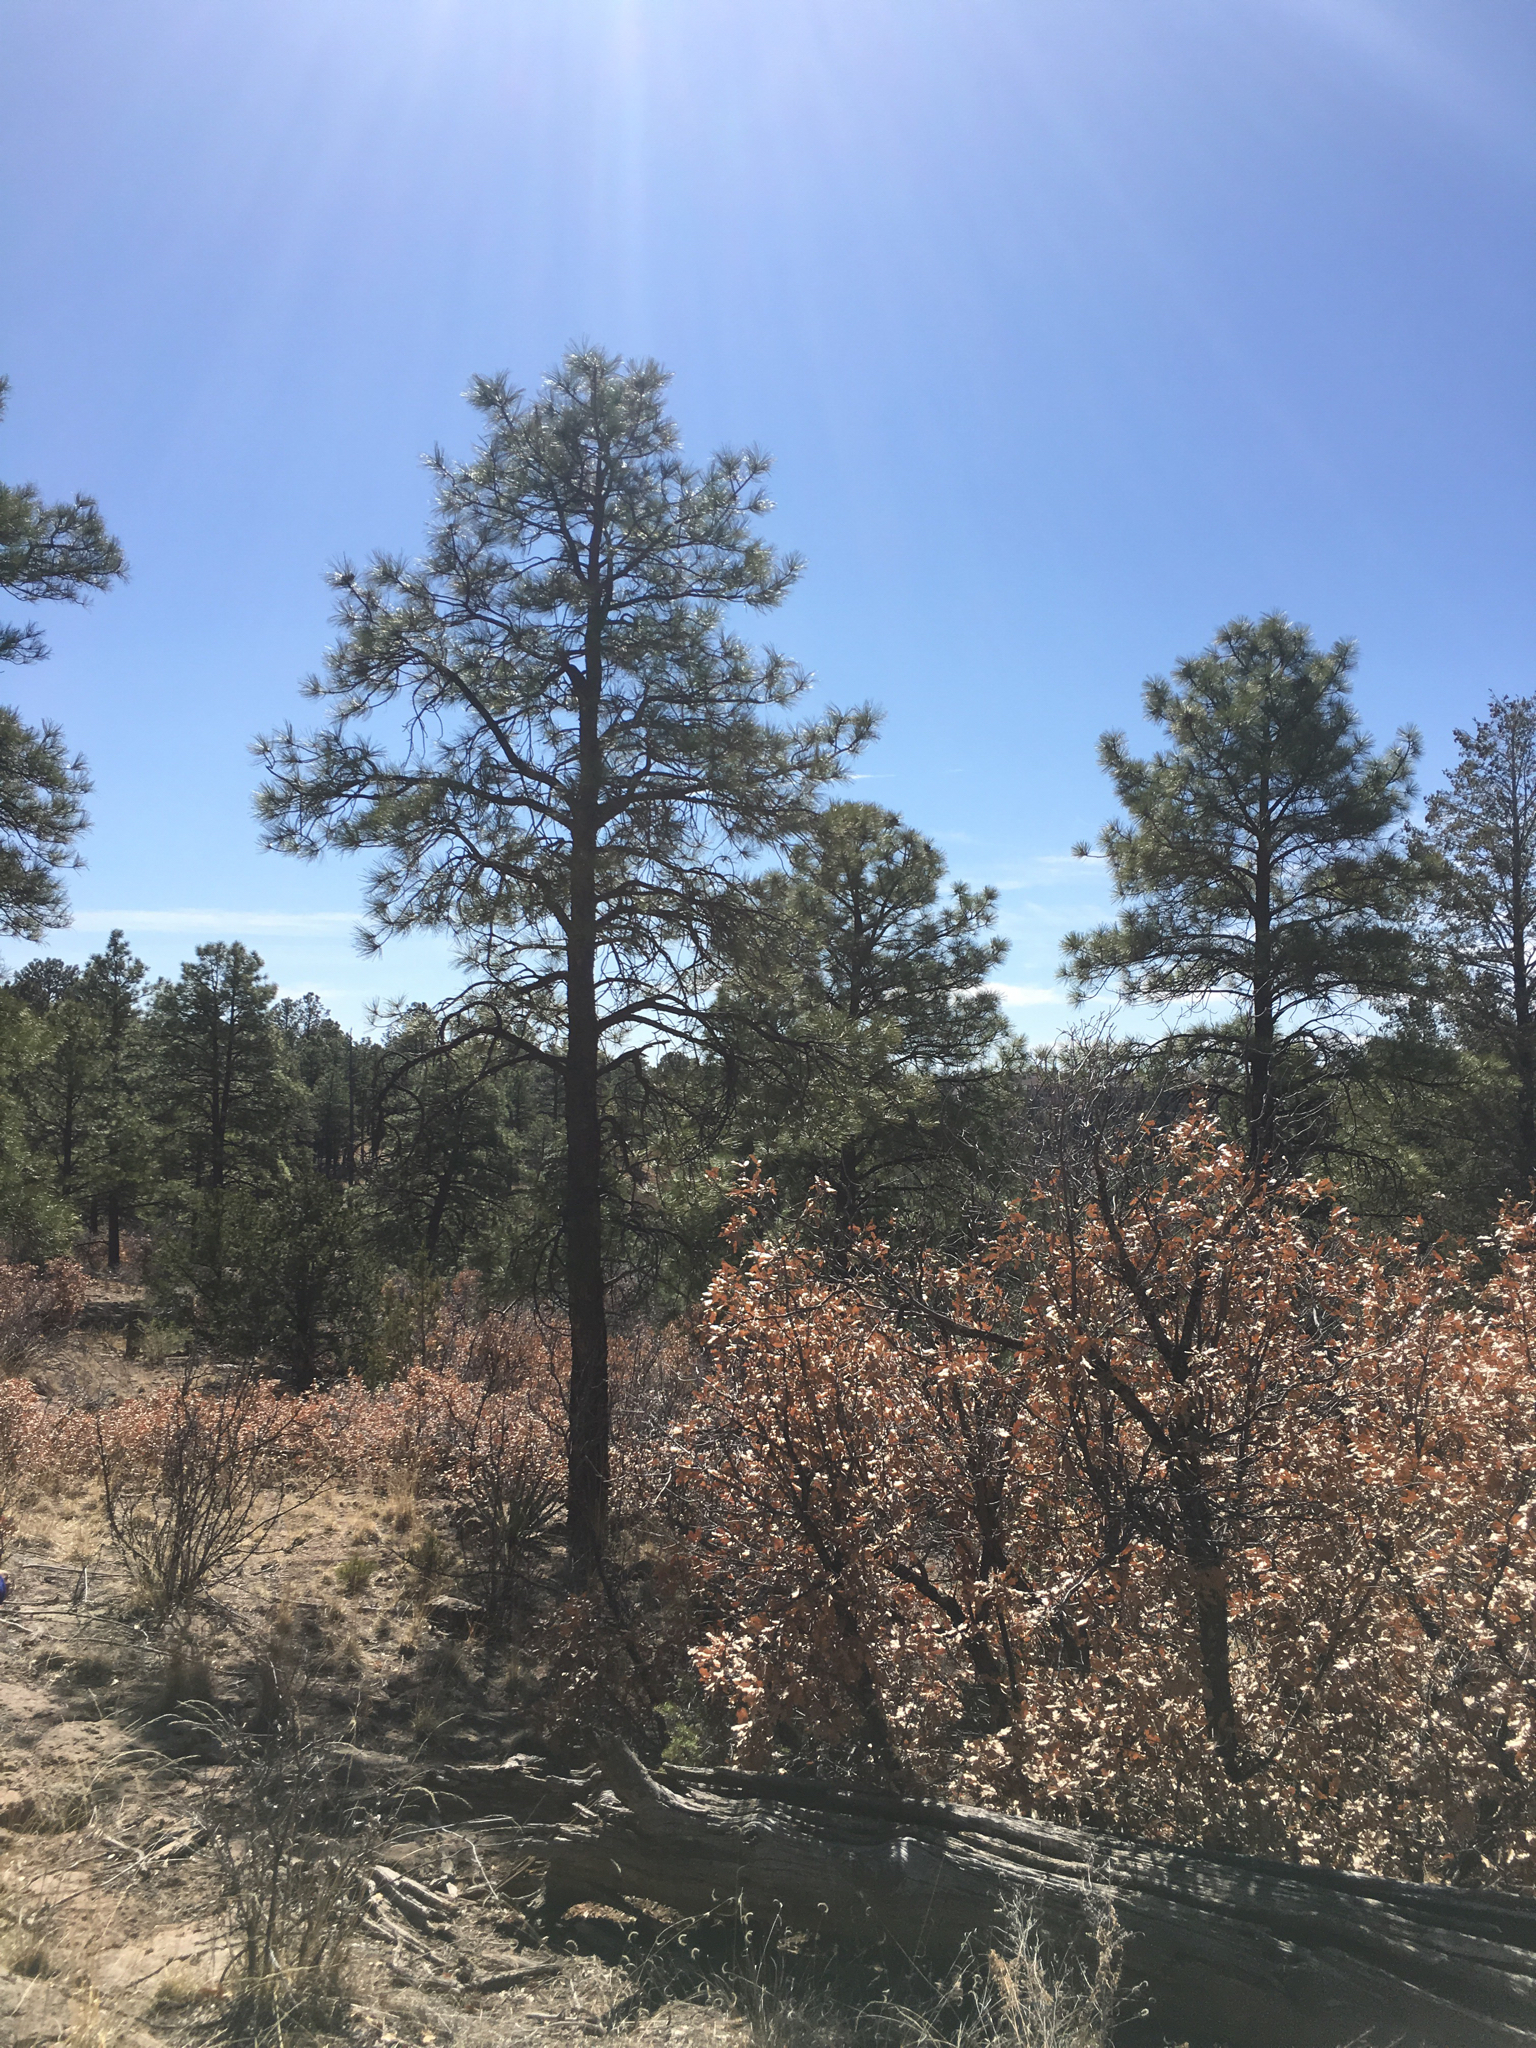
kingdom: Plantae
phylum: Tracheophyta
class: Pinopsida
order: Pinales
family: Pinaceae
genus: Pinus
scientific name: Pinus ponderosa
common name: Western yellow-pine
